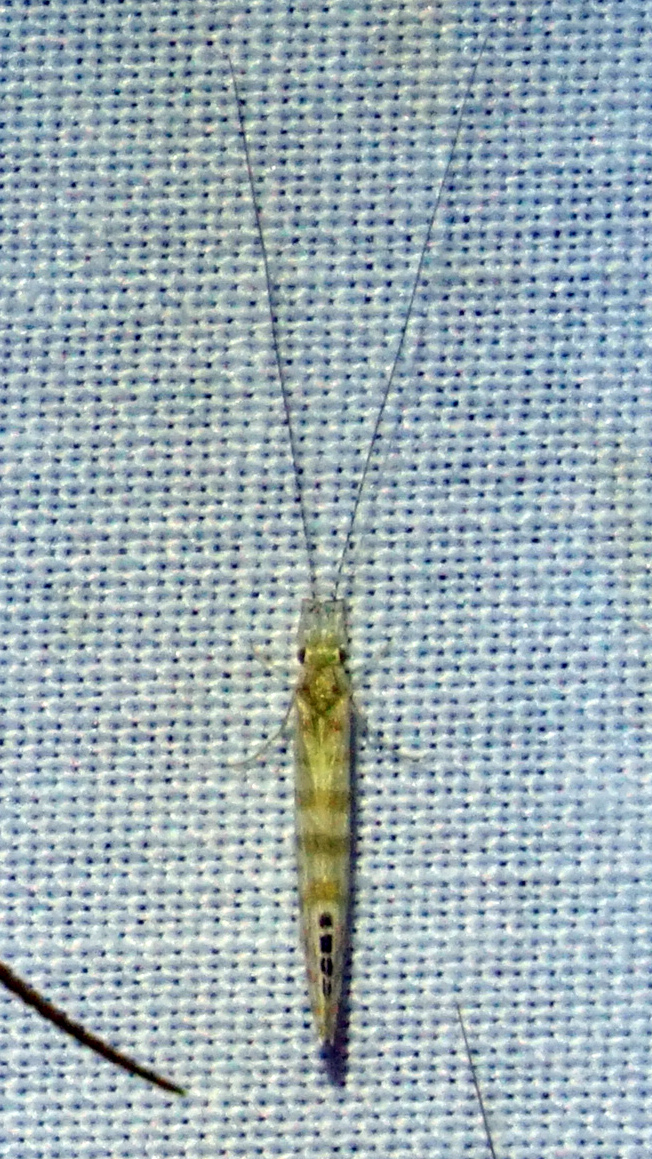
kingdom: Animalia
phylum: Arthropoda
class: Insecta
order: Trichoptera
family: Leptoceridae
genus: Nectopsyche
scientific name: Nectopsyche exquisita
